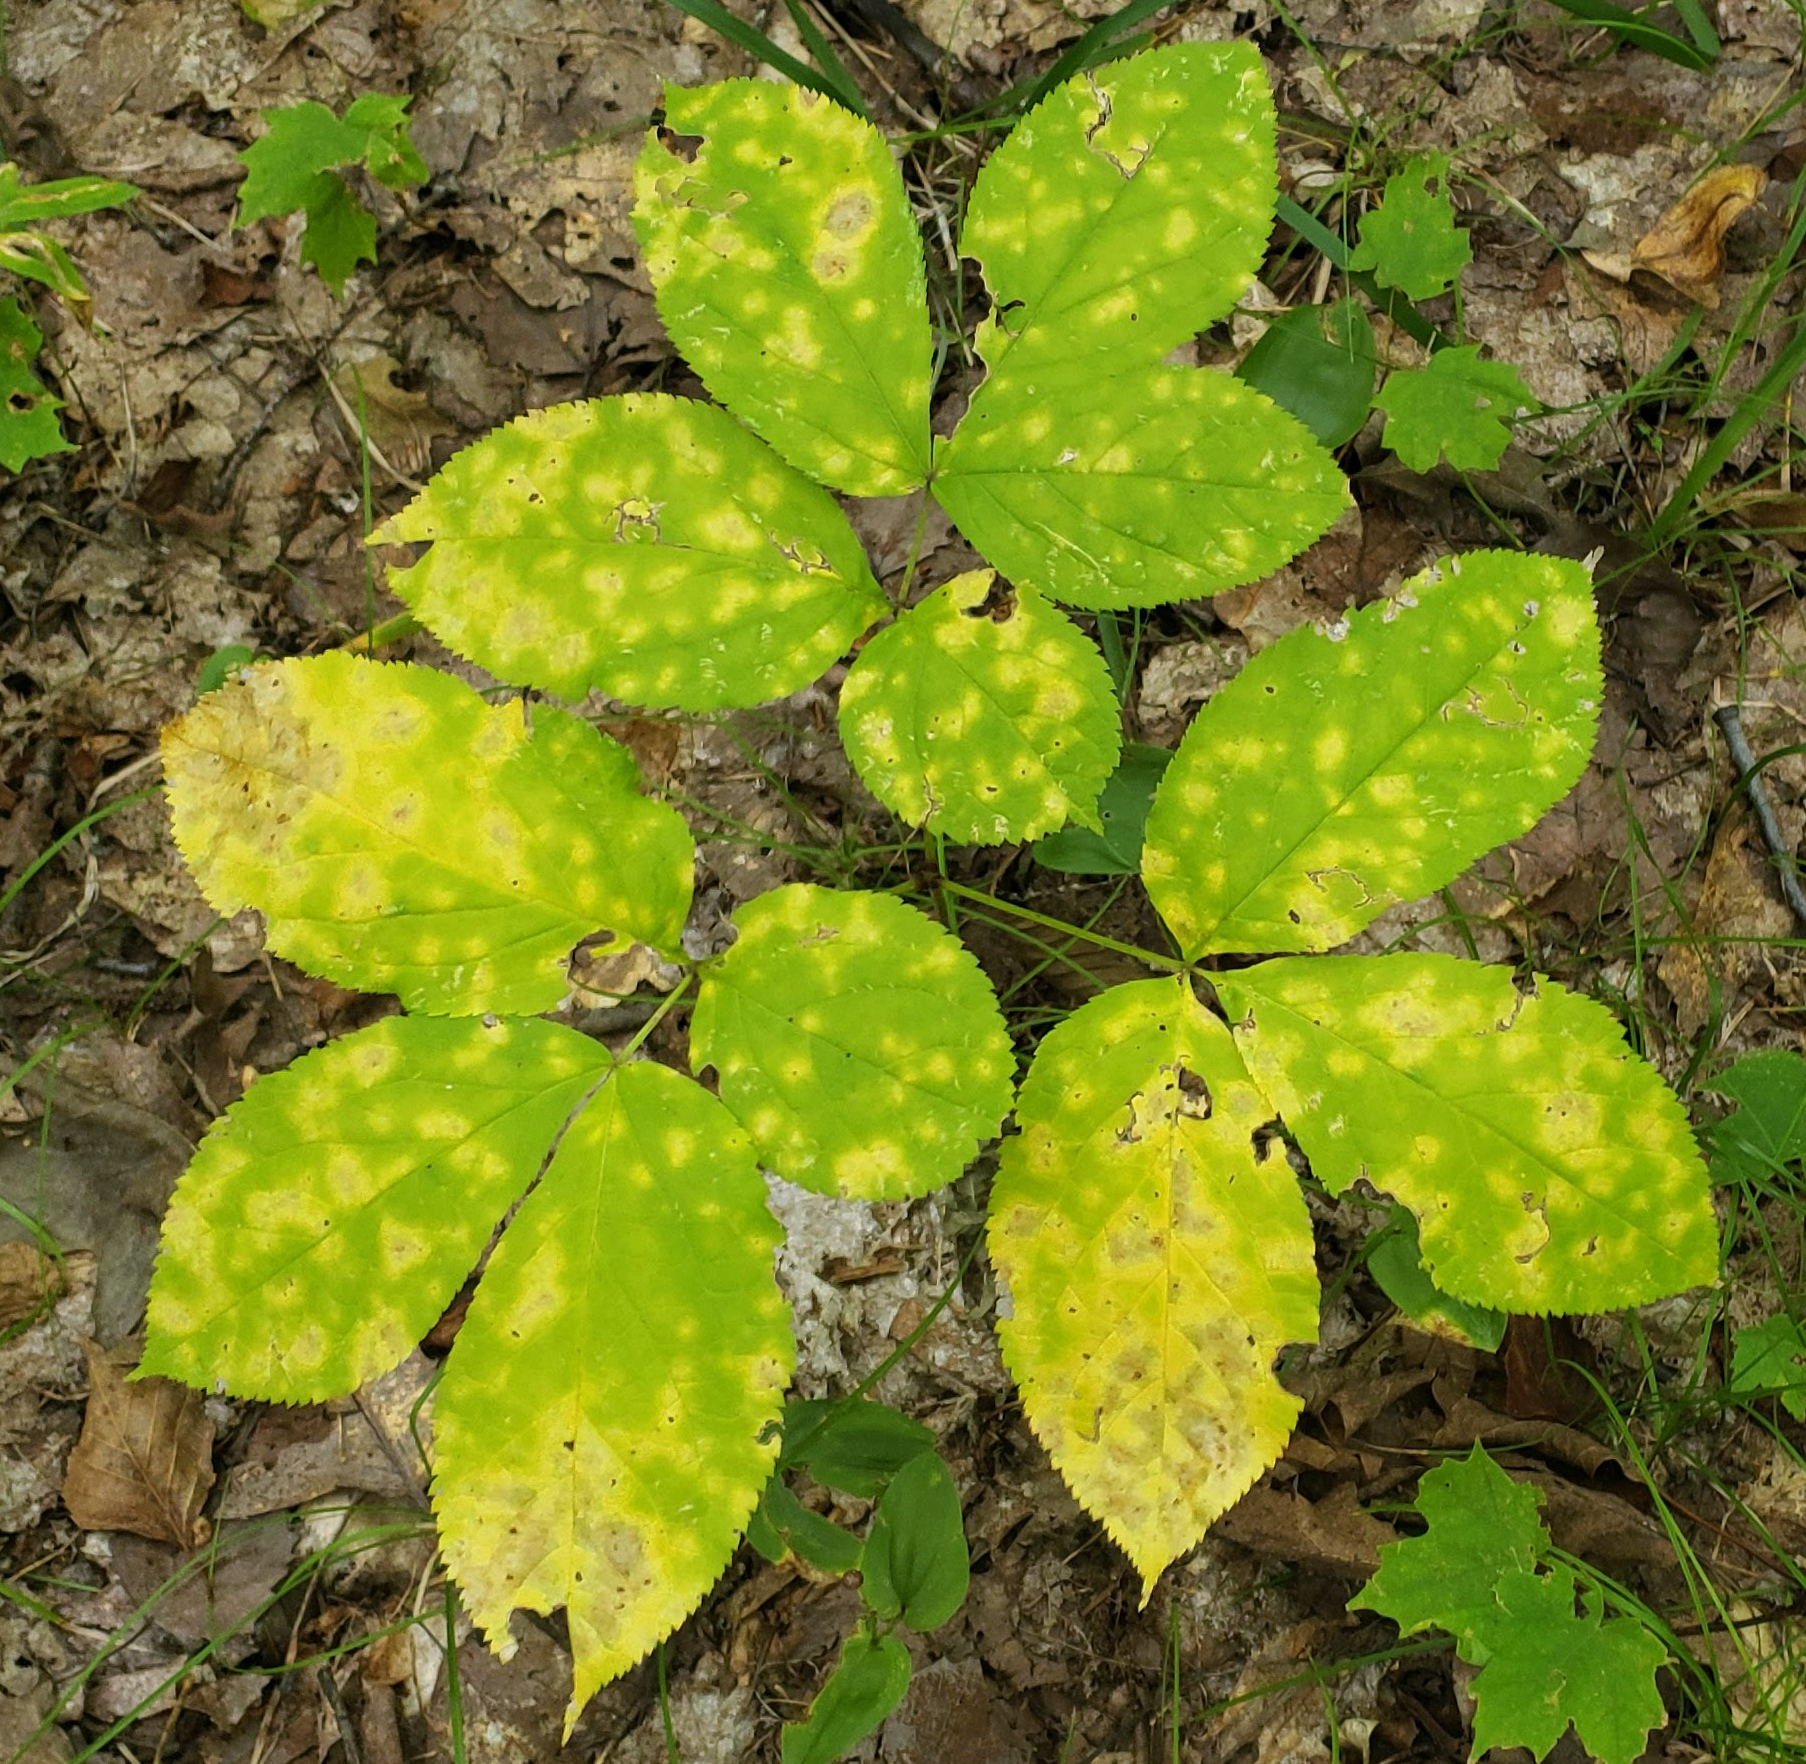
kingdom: Plantae
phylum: Tracheophyta
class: Magnoliopsida
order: Apiales
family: Araliaceae
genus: Aralia
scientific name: Aralia nudicaulis
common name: Wild sarsaparilla
